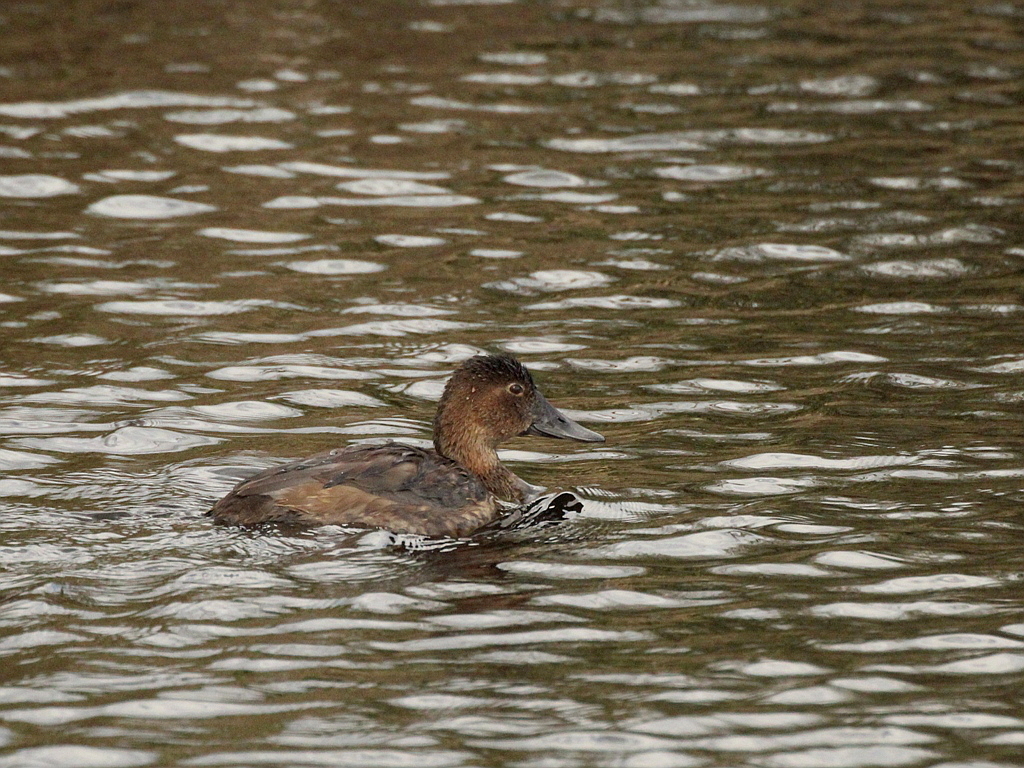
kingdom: Animalia
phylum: Chordata
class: Aves
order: Anseriformes
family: Anatidae
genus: Aythya
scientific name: Aythya ferina
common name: Common pochard
